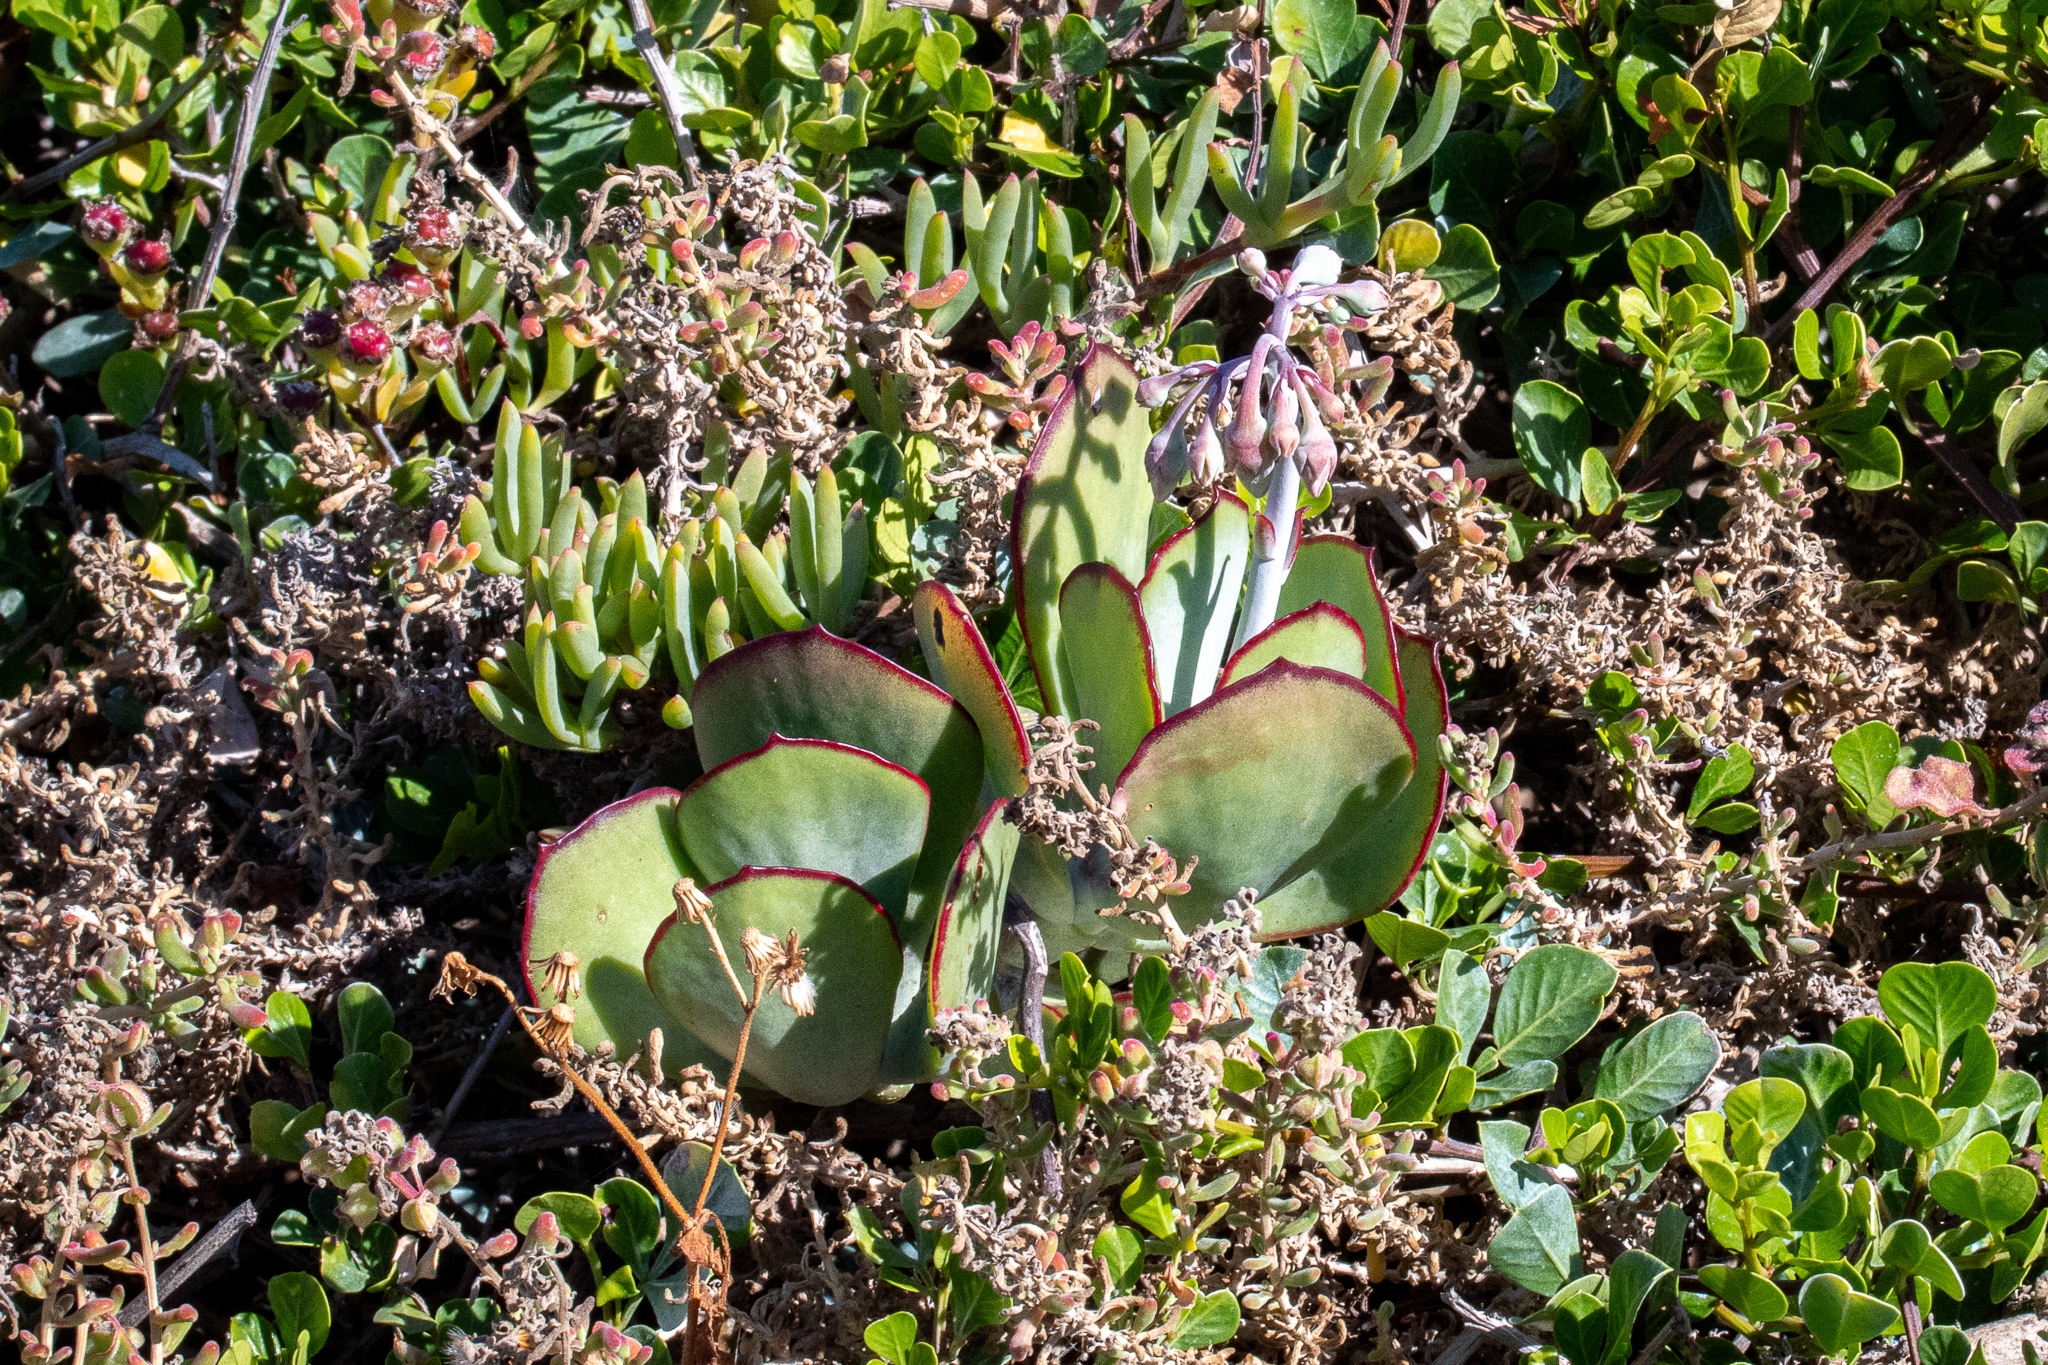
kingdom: Plantae
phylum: Tracheophyta
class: Magnoliopsida
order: Saxifragales
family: Crassulaceae
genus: Cotyledon
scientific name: Cotyledon orbiculata
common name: Pig's ear
